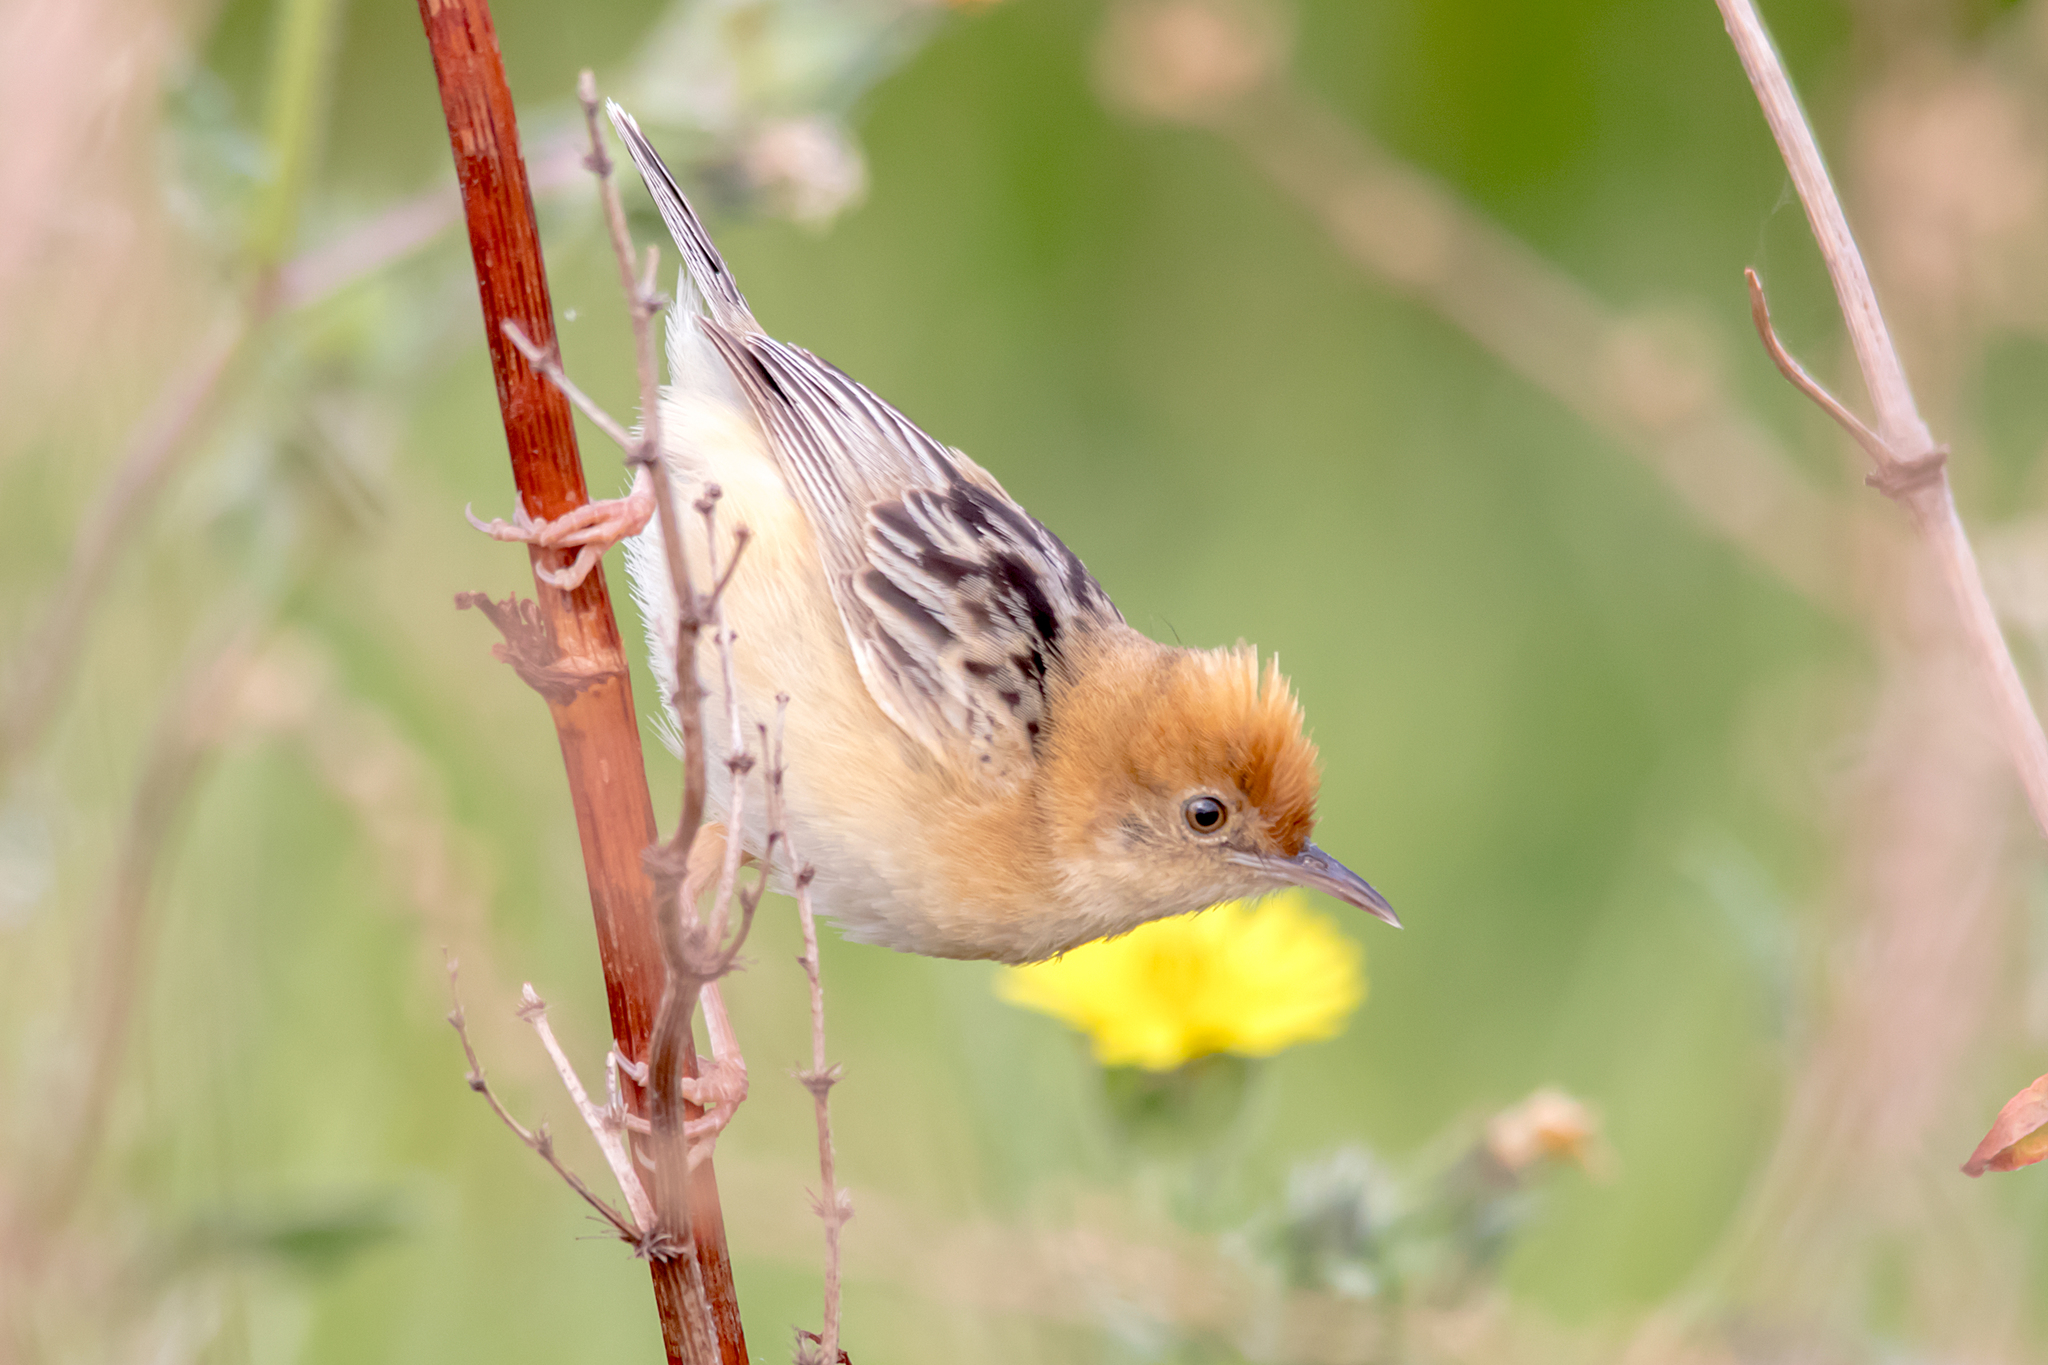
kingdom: Animalia
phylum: Chordata
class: Aves
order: Passeriformes
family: Cisticolidae
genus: Cisticola
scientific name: Cisticola exilis
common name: Golden-headed cisticola
